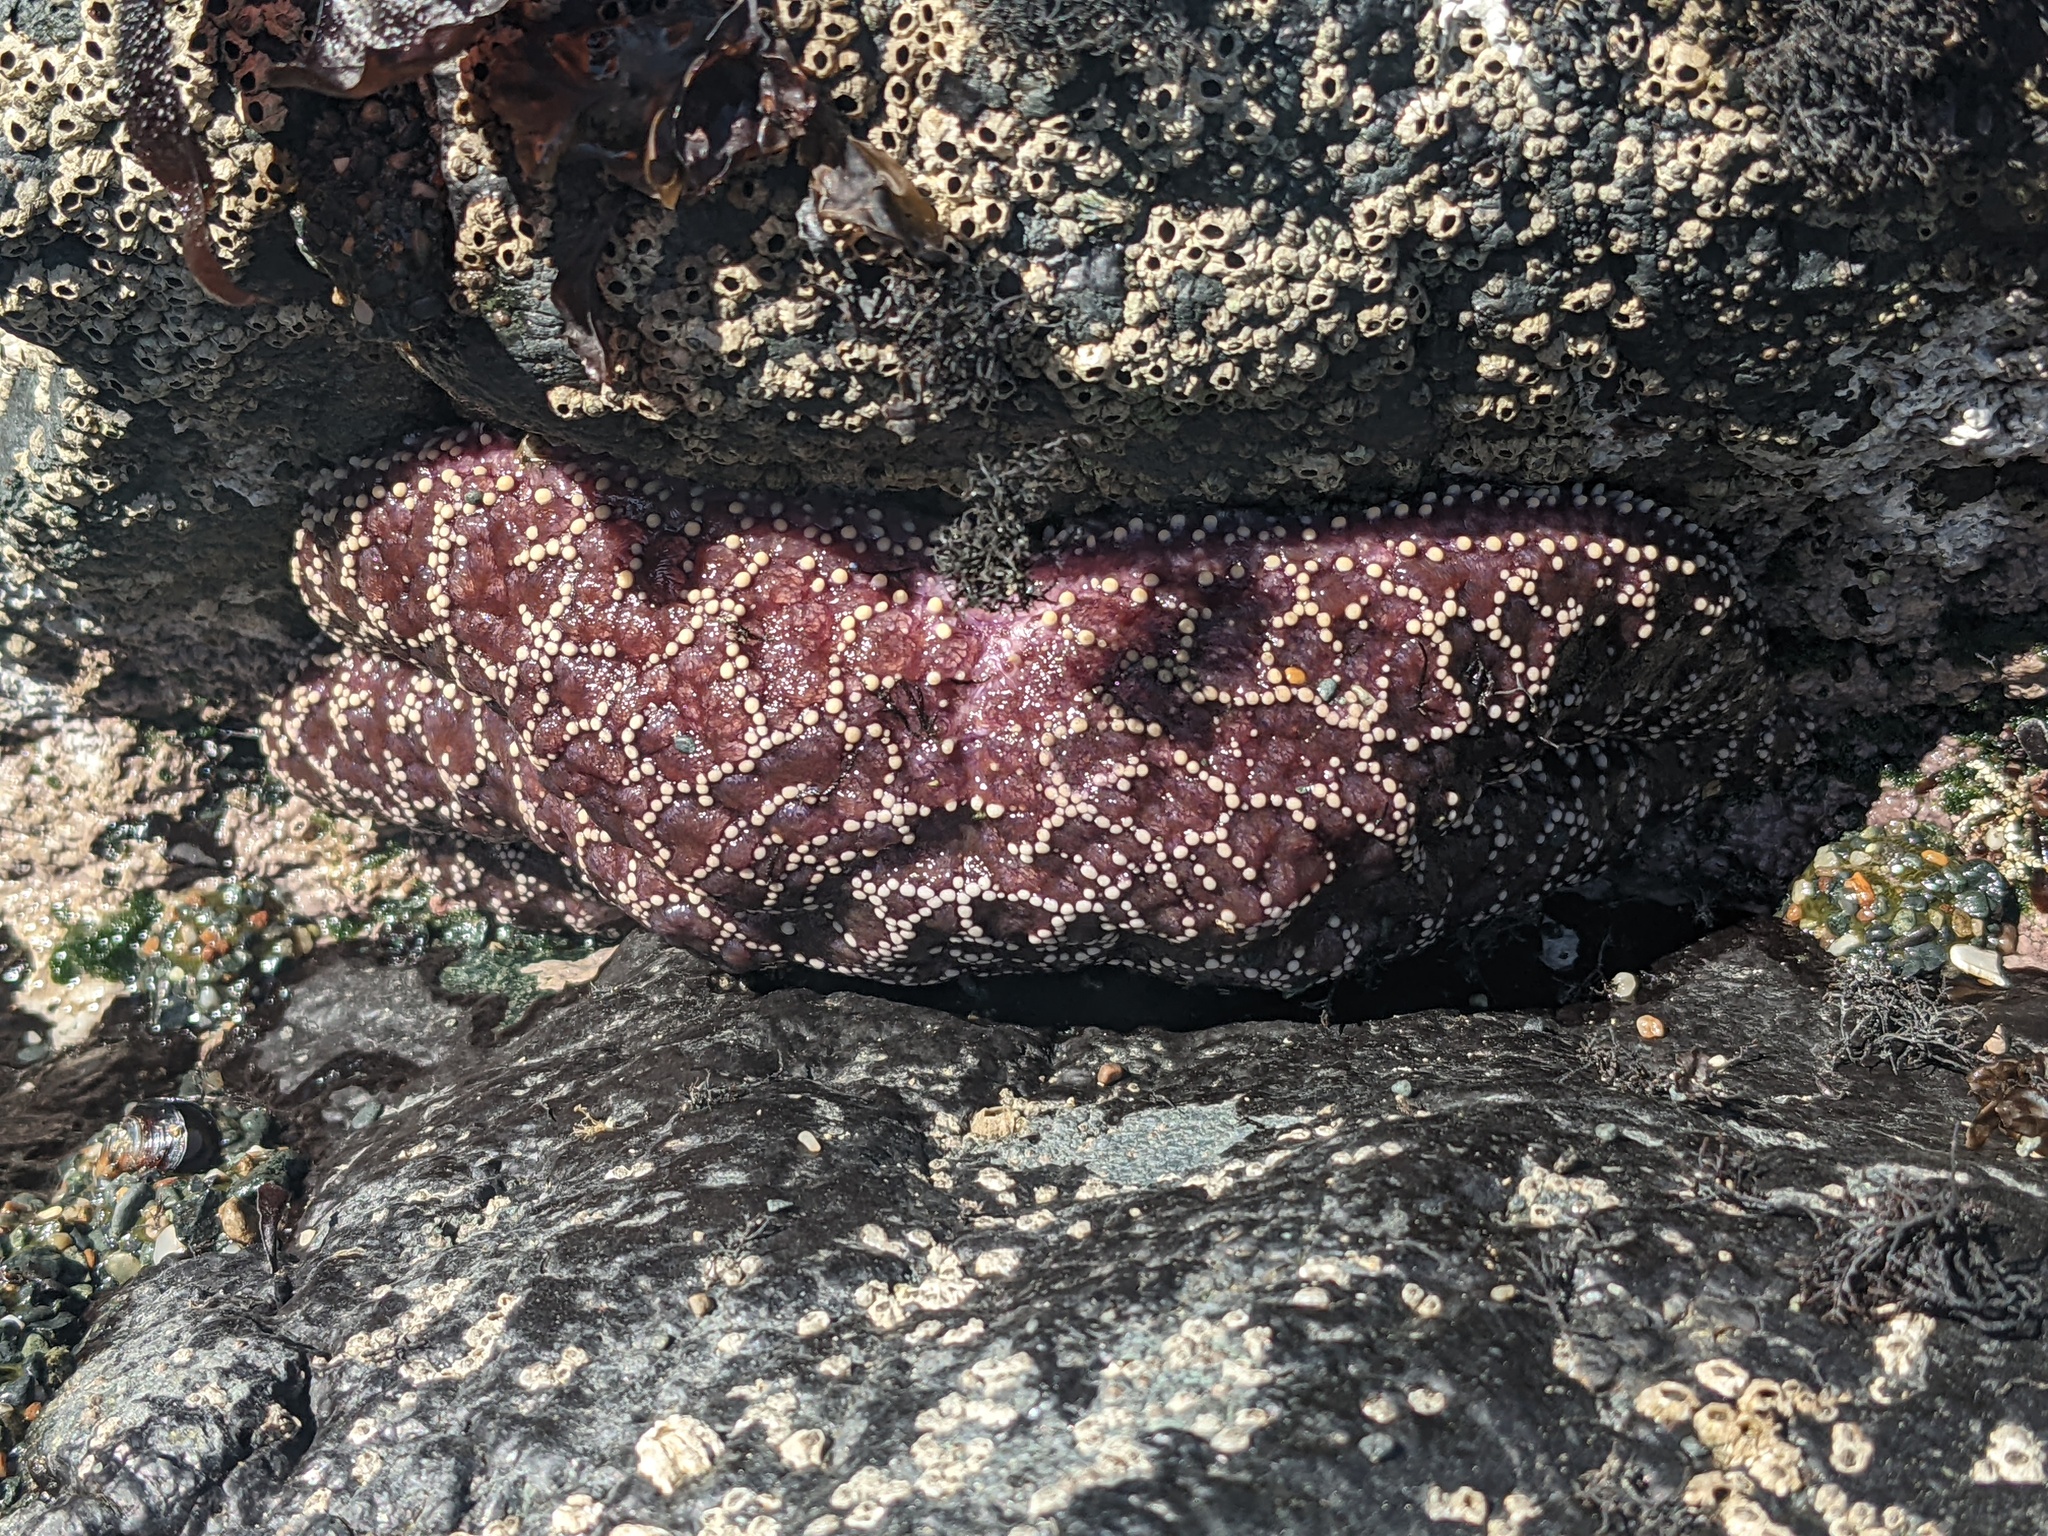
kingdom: Animalia
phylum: Echinodermata
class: Asteroidea
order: Forcipulatida
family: Asteriidae
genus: Pisaster
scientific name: Pisaster ochraceus
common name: Ochre stars
